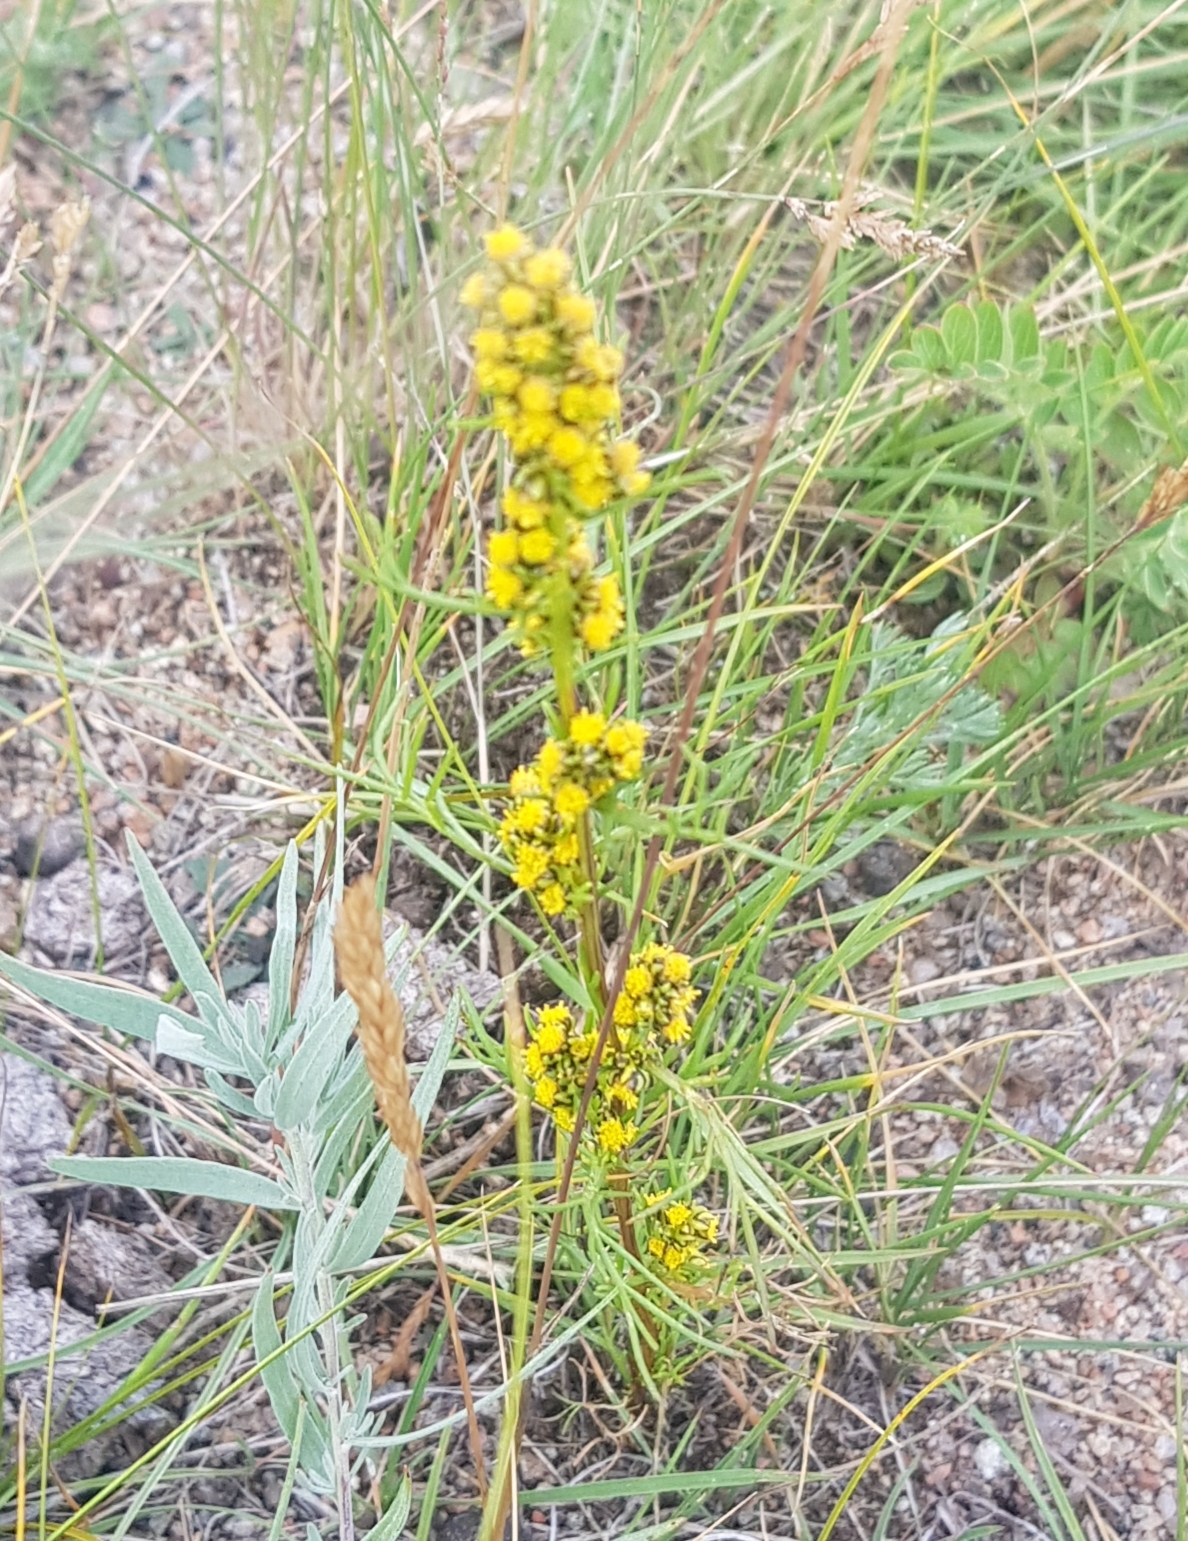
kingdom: Plantae
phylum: Tracheophyta
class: Magnoliopsida
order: Asterales
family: Asteraceae
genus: Artemisia
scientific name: Artemisia palustris
